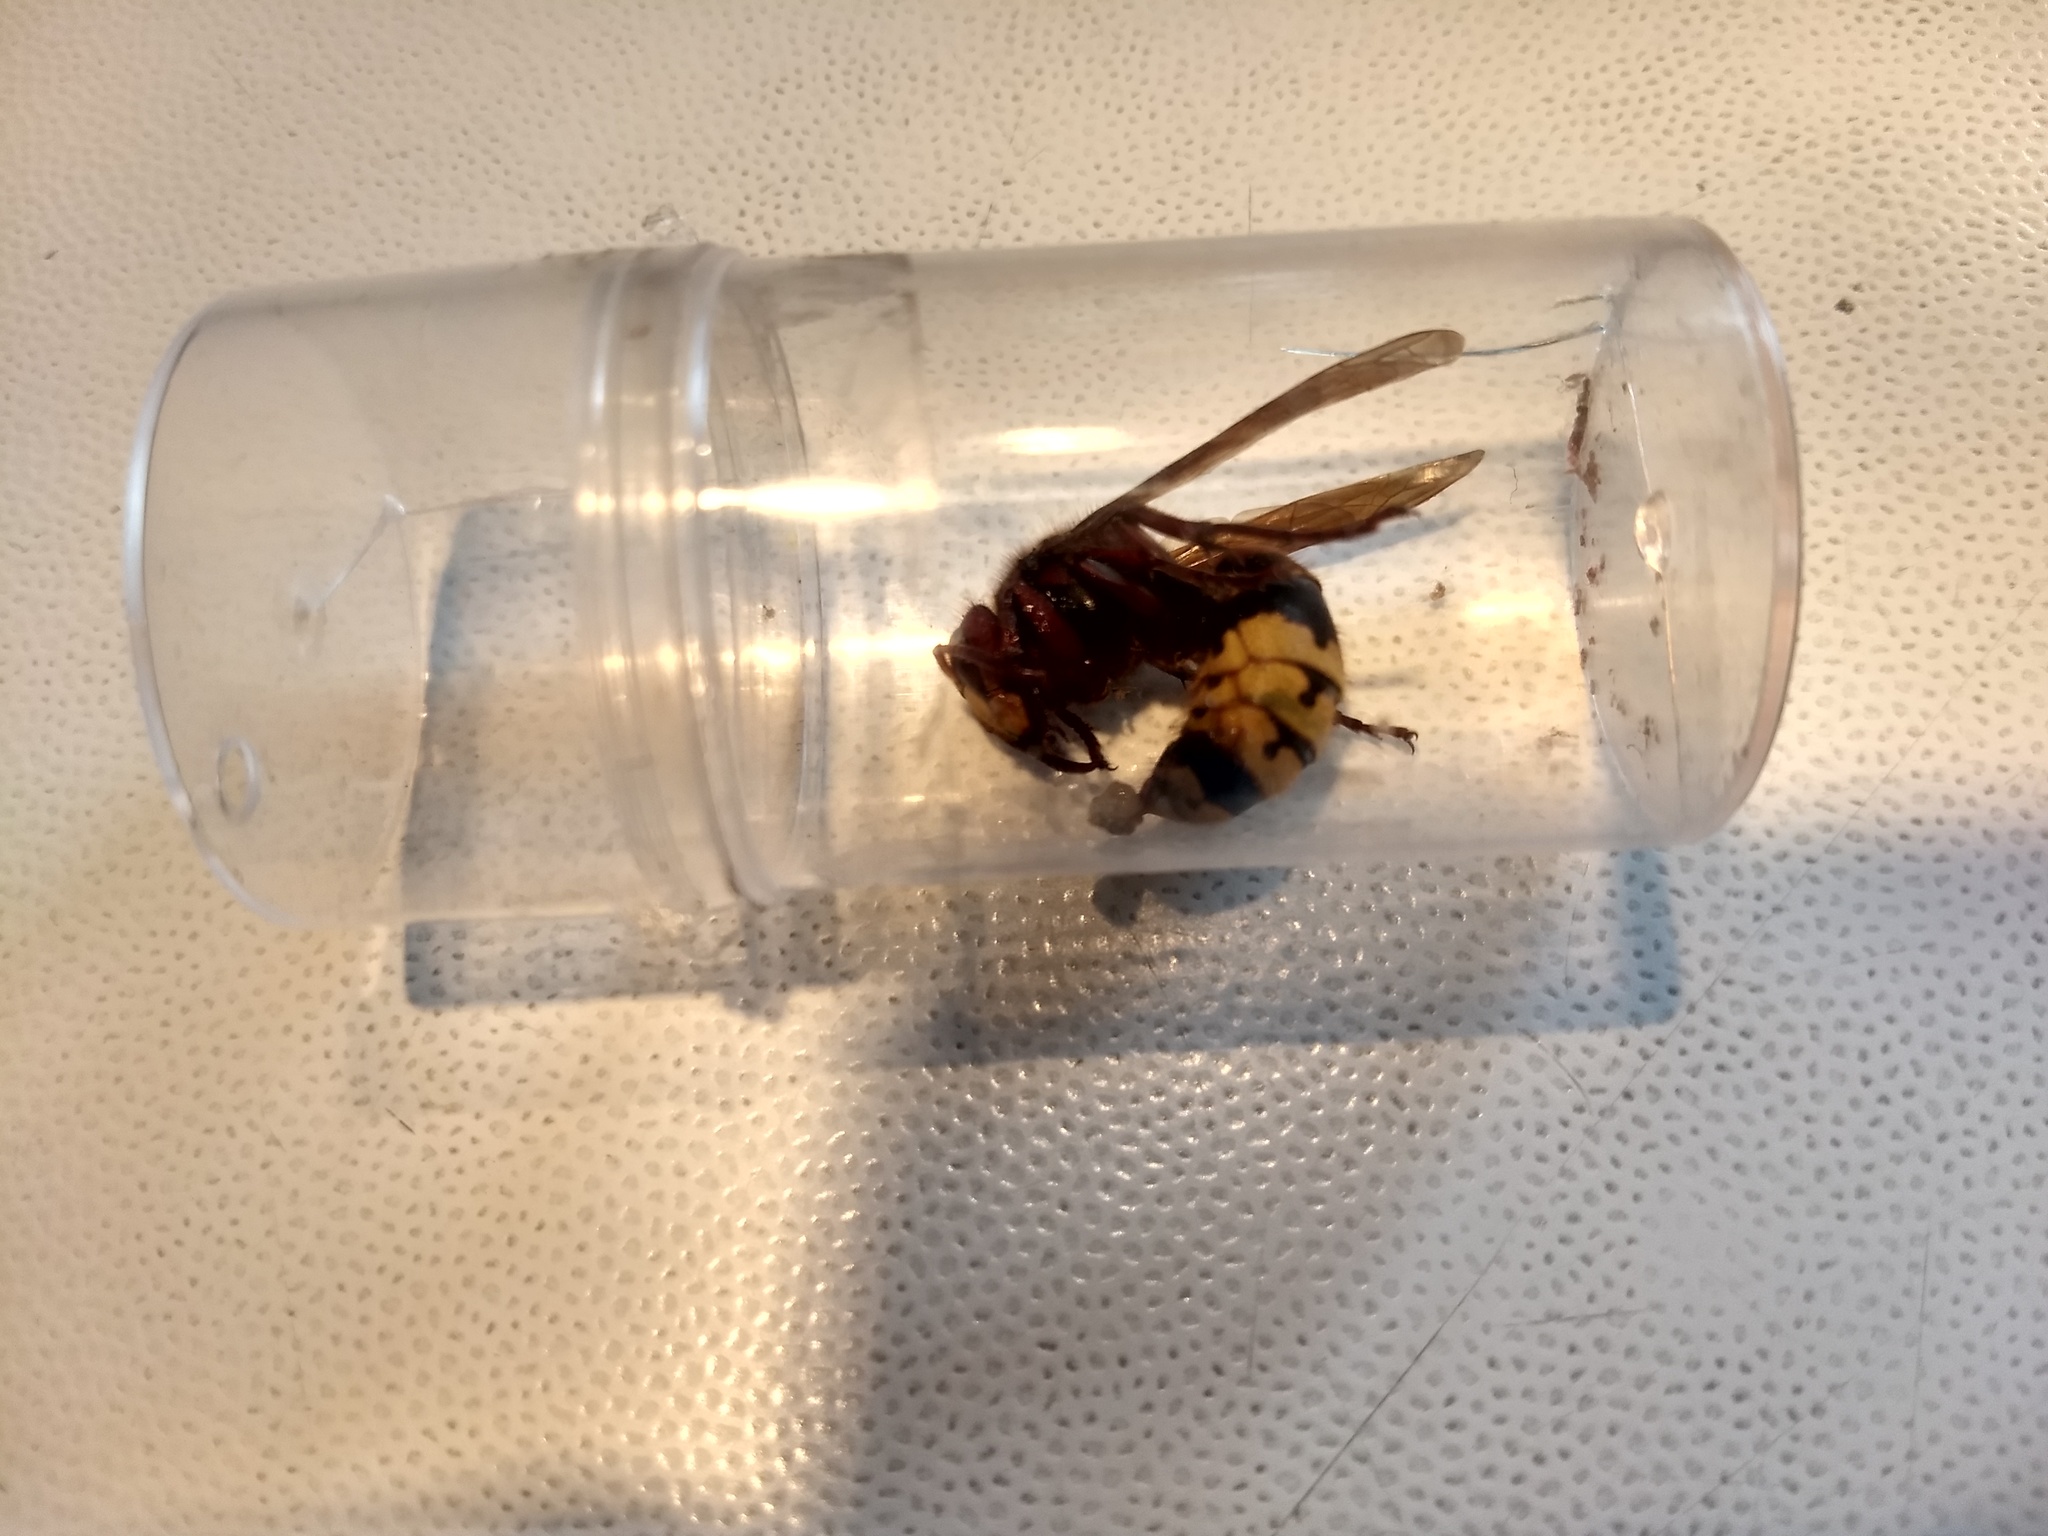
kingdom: Animalia
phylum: Arthropoda
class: Insecta
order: Hymenoptera
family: Vespidae
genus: Vespa
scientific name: Vespa crabro
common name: Hornet
